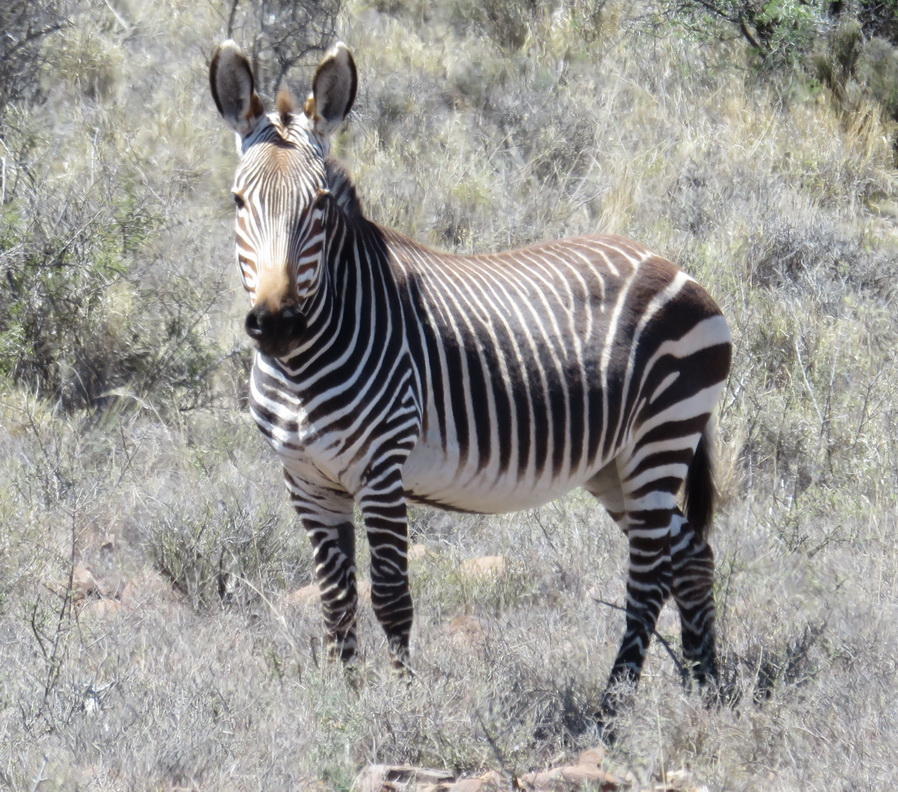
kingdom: Animalia
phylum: Chordata
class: Mammalia
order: Perissodactyla
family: Equidae
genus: Equus
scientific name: Equus zebra
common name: Mountain zebra
